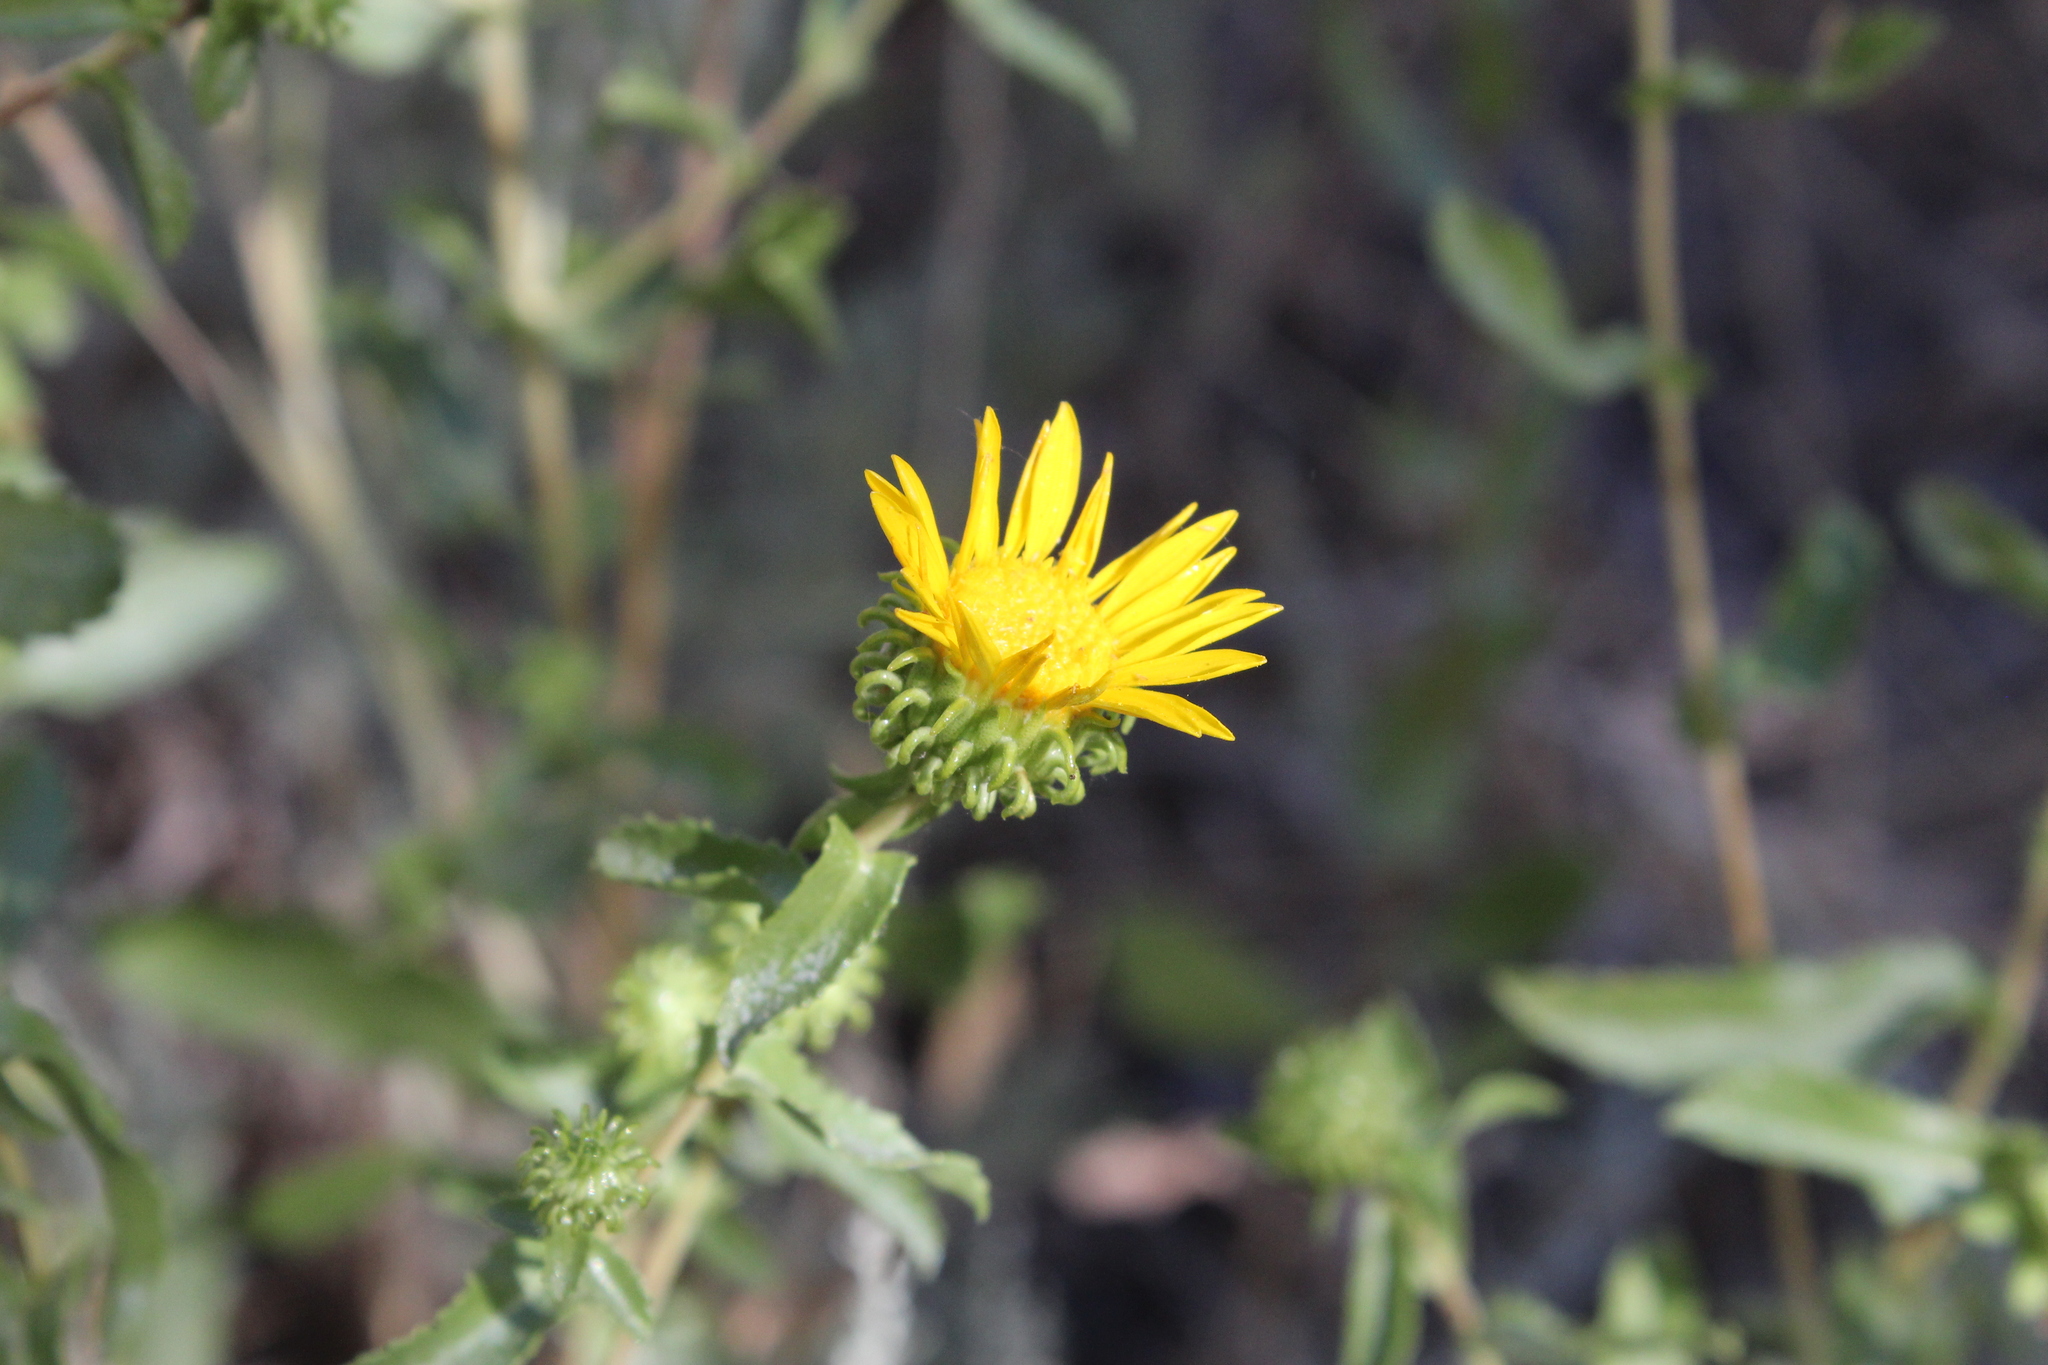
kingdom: Plantae
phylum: Tracheophyta
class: Magnoliopsida
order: Asterales
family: Asteraceae
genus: Grindelia
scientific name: Grindelia squarrosa
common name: Curly-cup gumweed
